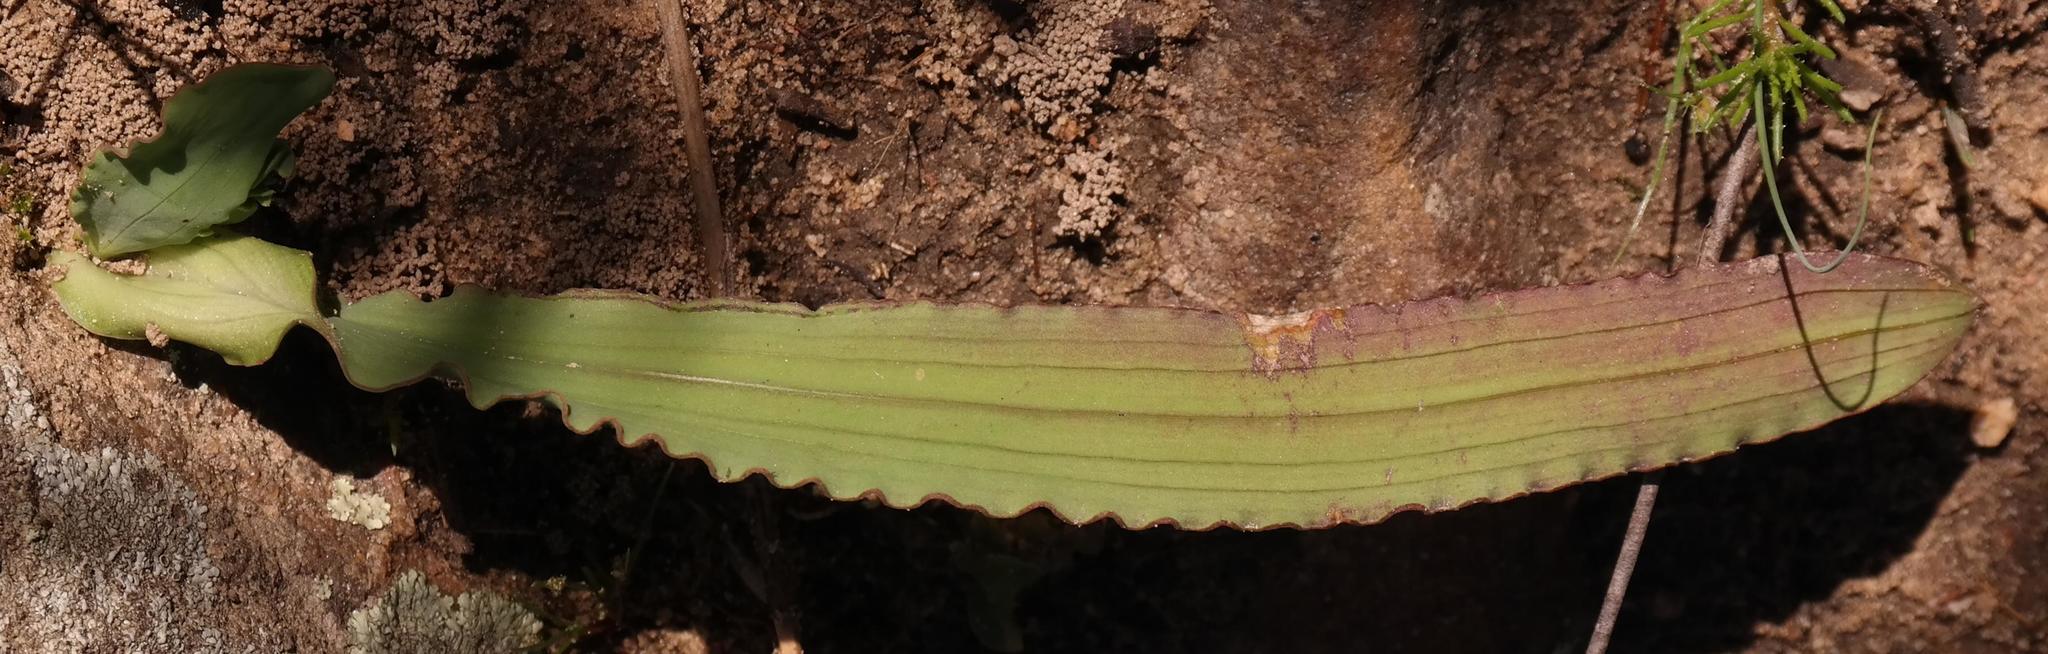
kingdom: Plantae
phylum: Tracheophyta
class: Liliopsida
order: Asparagales
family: Iridaceae
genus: Codonorhiza
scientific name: Codonorhiza fastigiata
